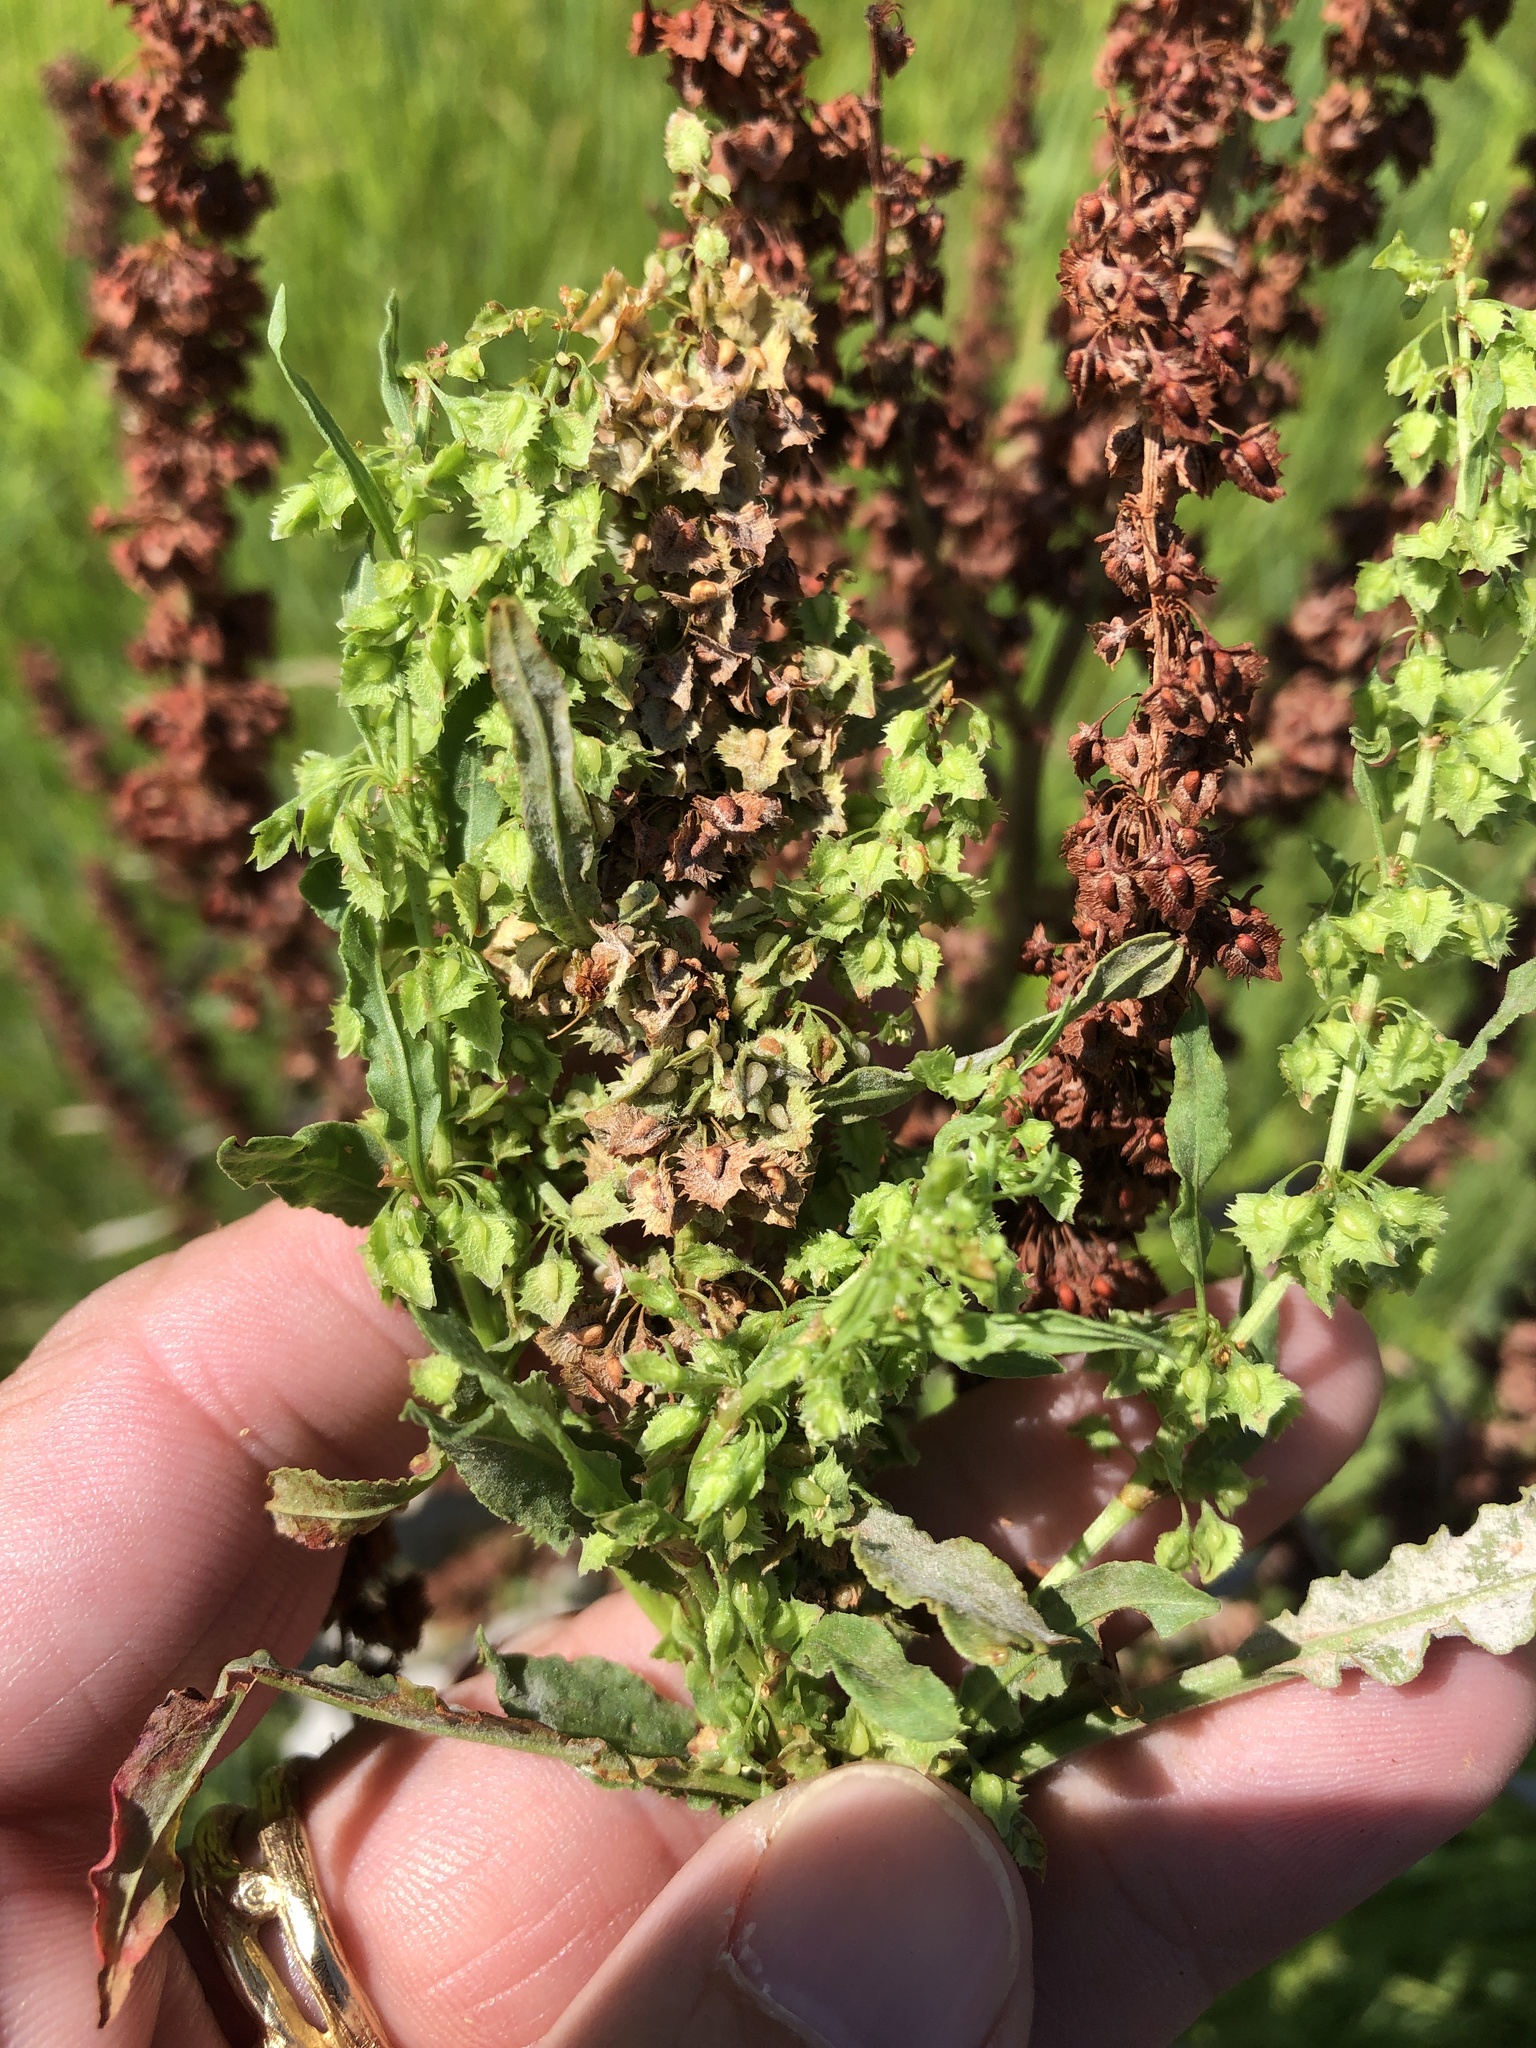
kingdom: Plantae
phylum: Tracheophyta
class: Magnoliopsida
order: Caryophyllales
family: Polygonaceae
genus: Rumex
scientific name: Rumex obtusifolius
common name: Bitter dock
